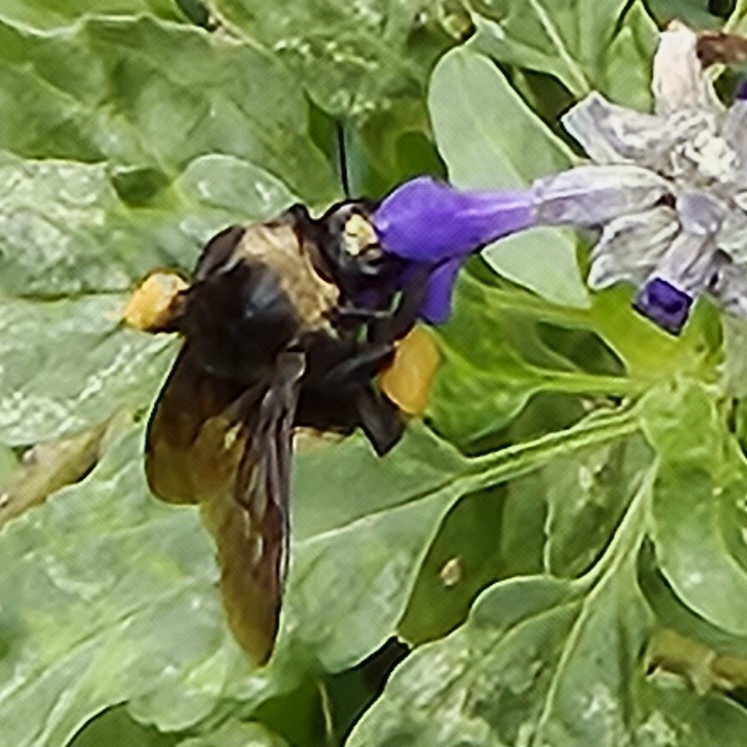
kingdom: Animalia
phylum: Arthropoda
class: Insecta
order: Hymenoptera
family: Apidae
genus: Bombus
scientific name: Bombus pensylvanicus
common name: Bumble bee
